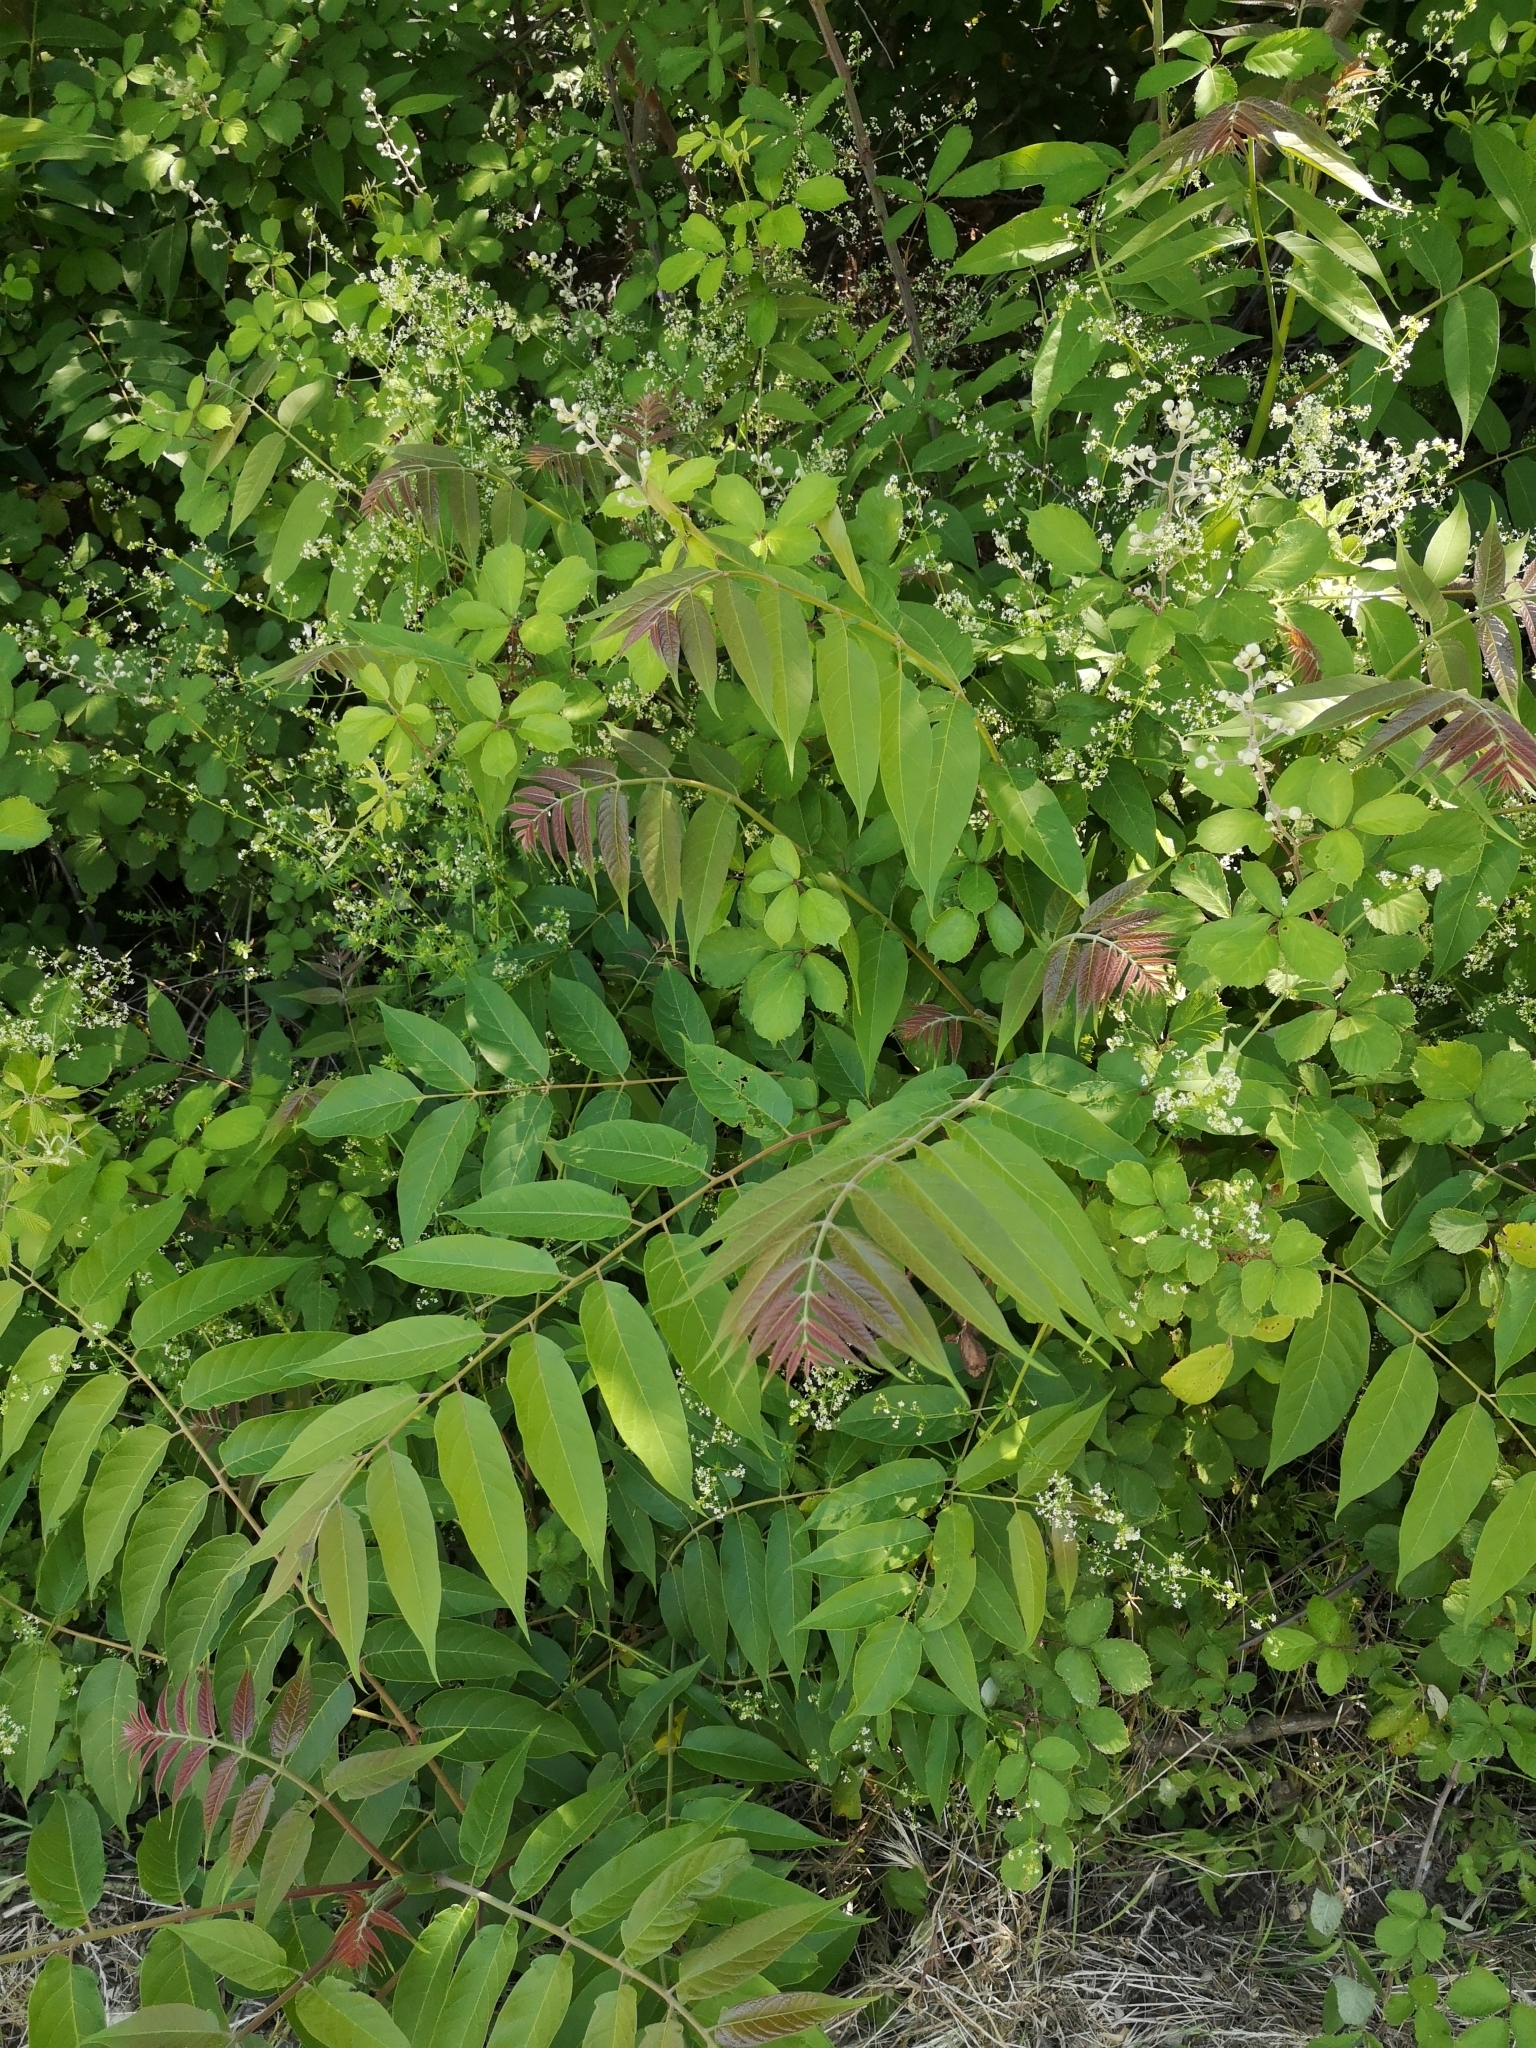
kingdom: Plantae
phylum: Tracheophyta
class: Magnoliopsida
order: Sapindales
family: Simaroubaceae
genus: Ailanthus
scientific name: Ailanthus altissima
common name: Tree-of-heaven
